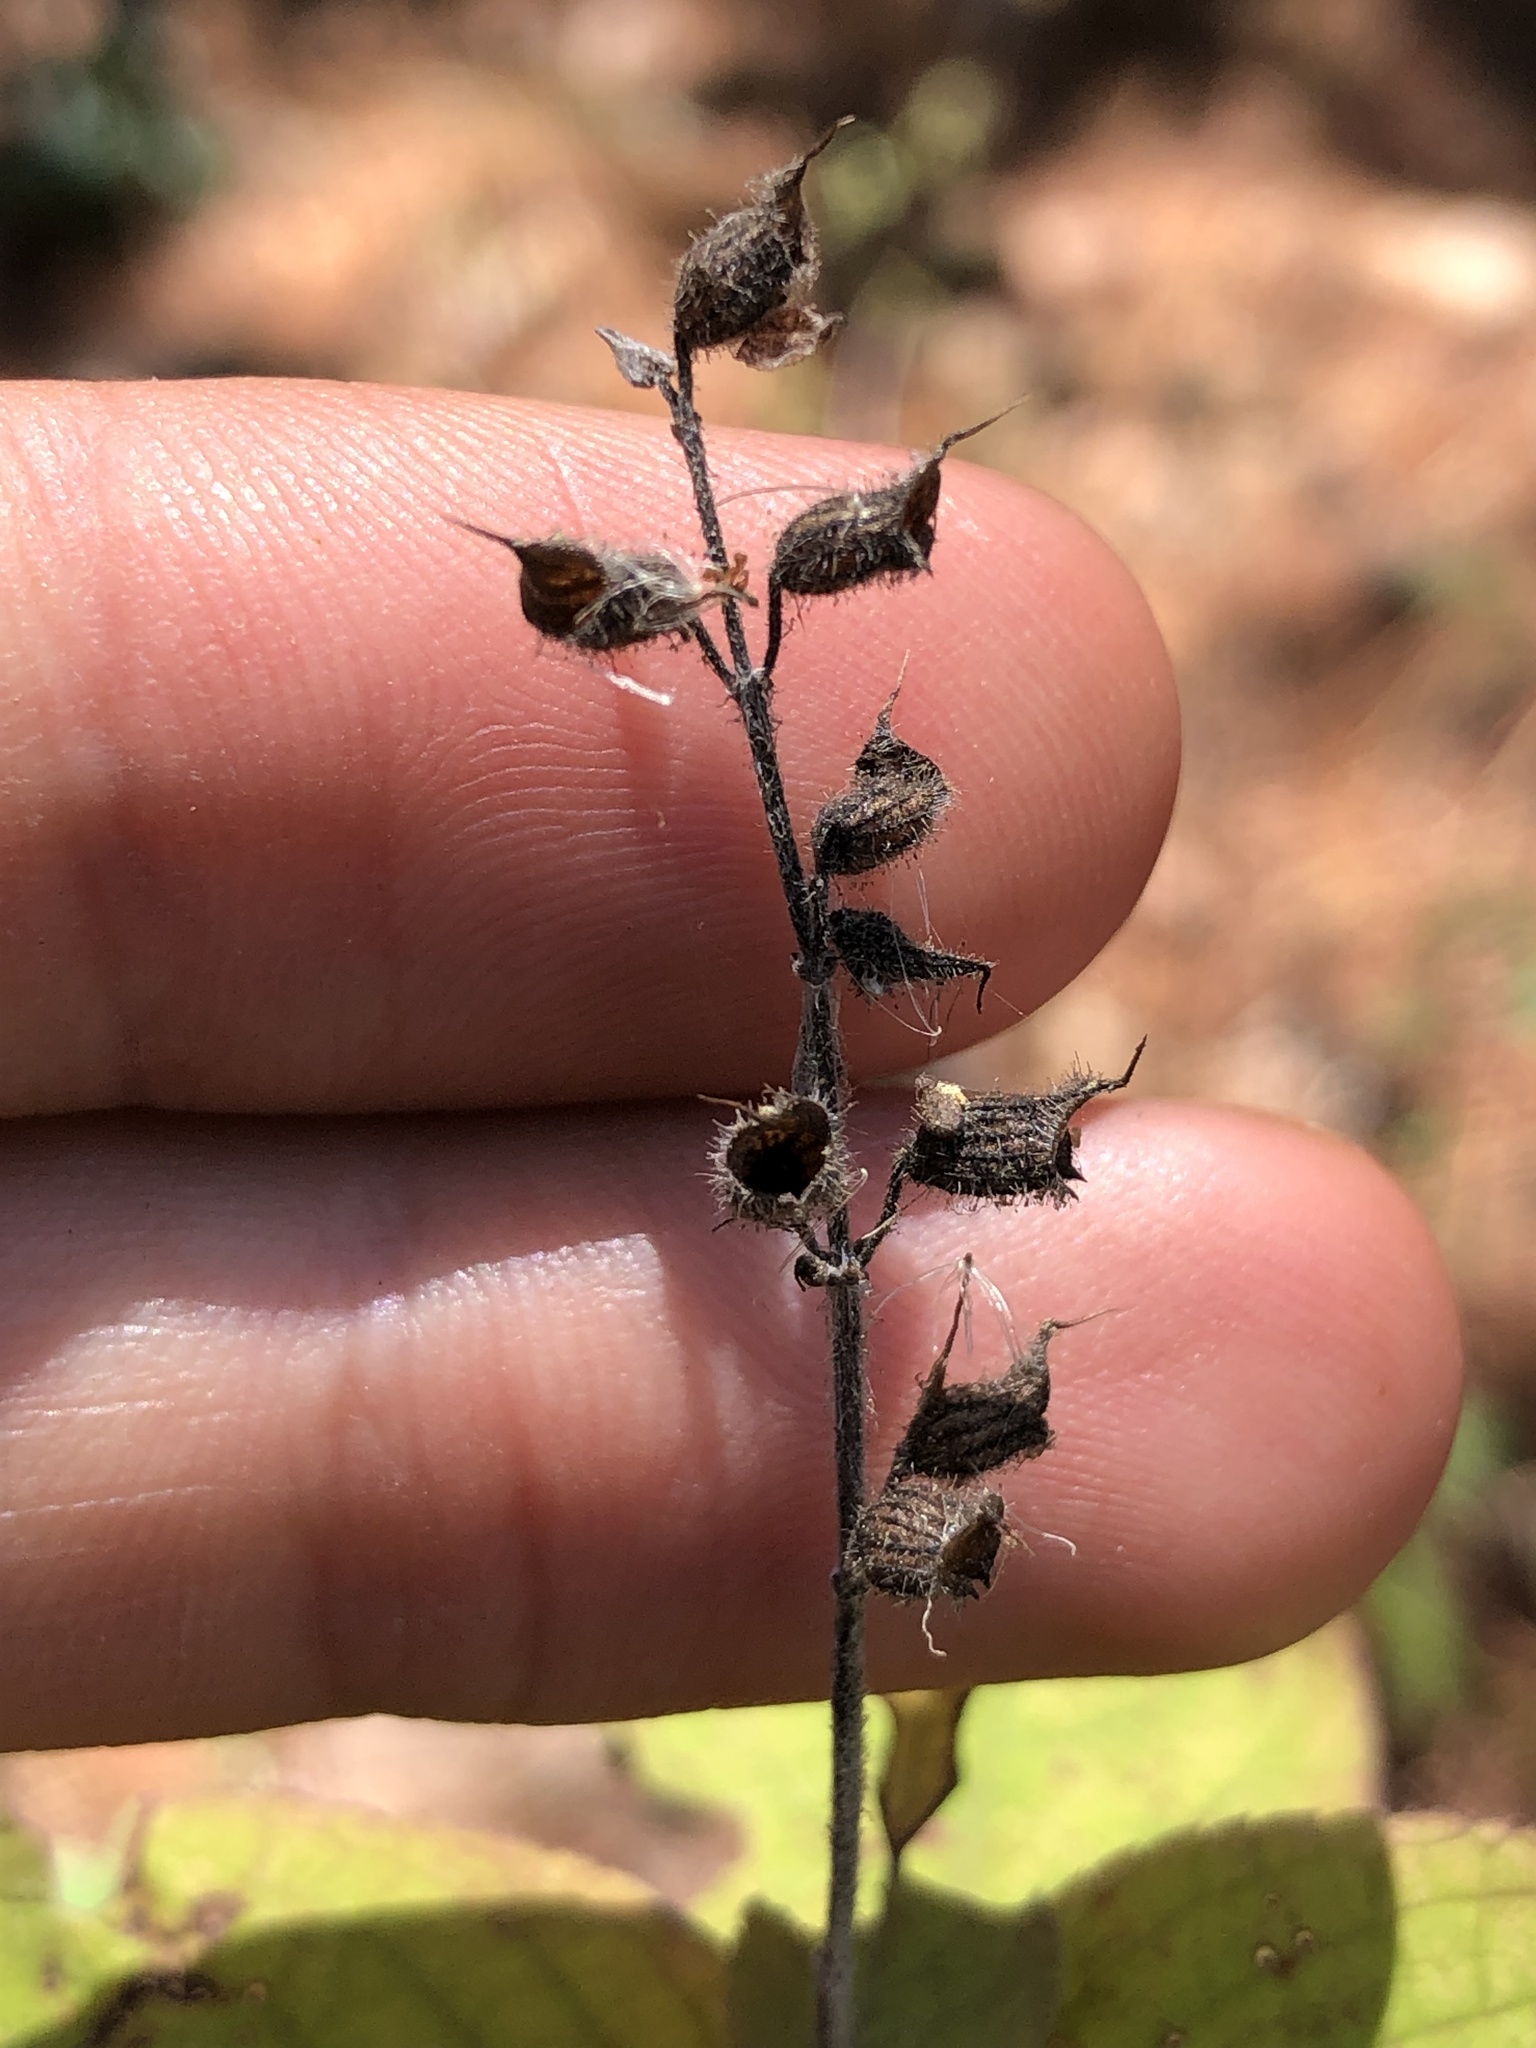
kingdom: Plantae
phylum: Tracheophyta
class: Magnoliopsida
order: Lamiales
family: Lamiaceae
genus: Salvia
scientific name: Salvia cinnabarina
